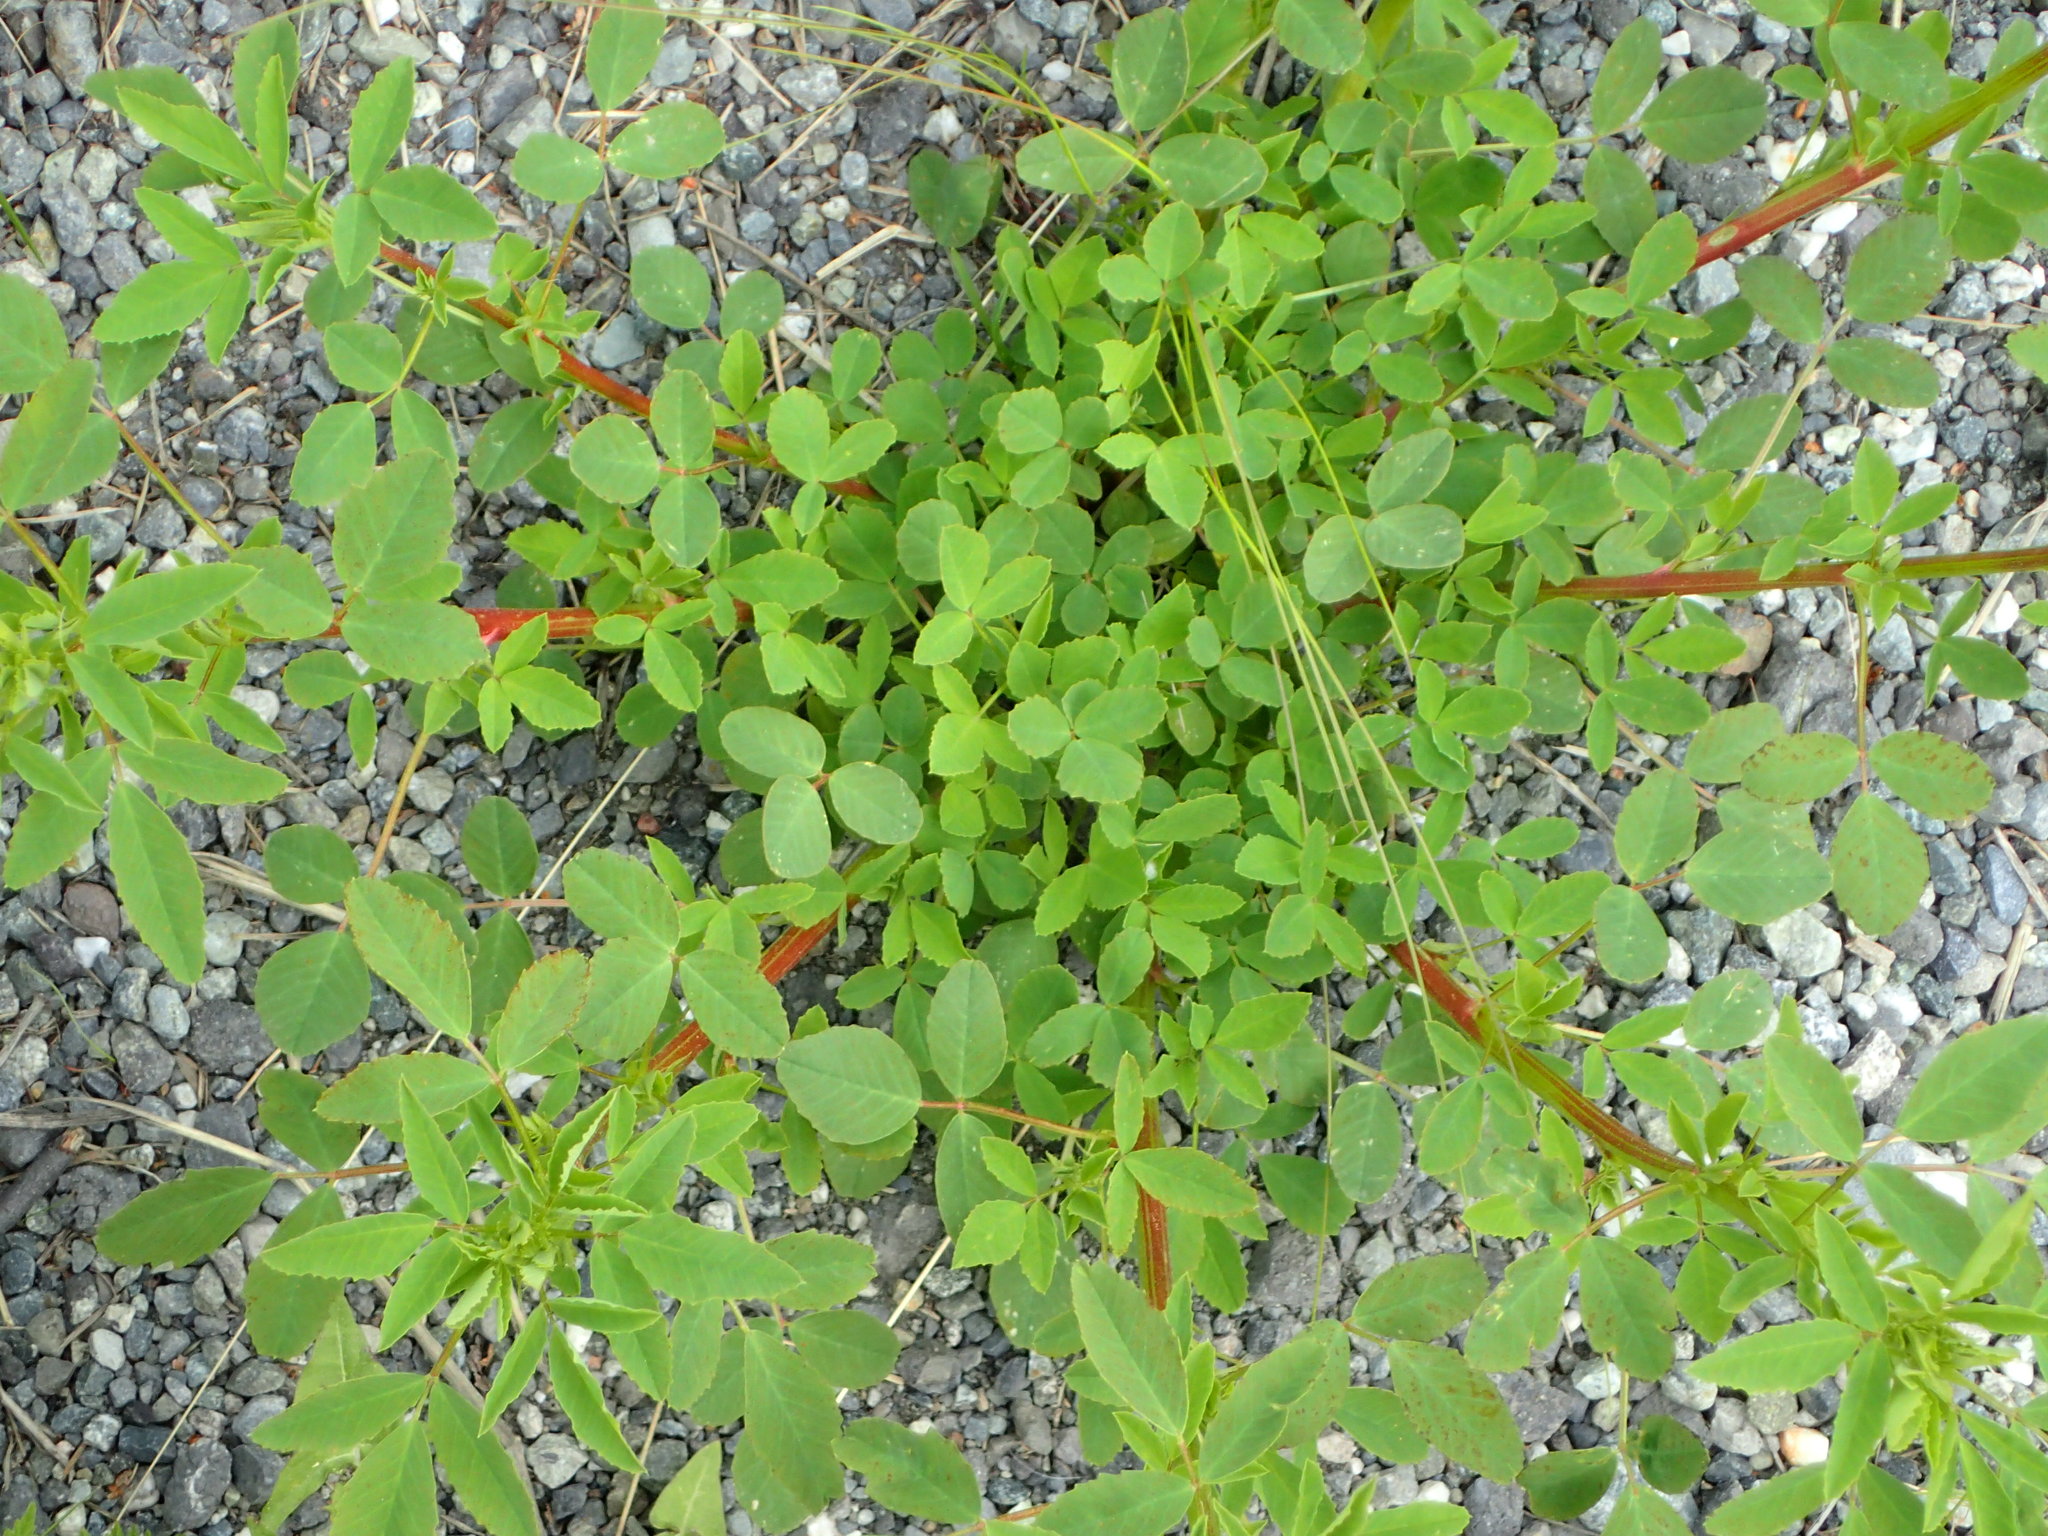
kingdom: Plantae
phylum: Tracheophyta
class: Magnoliopsida
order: Fabales
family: Fabaceae
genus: Melilotus
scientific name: Melilotus
